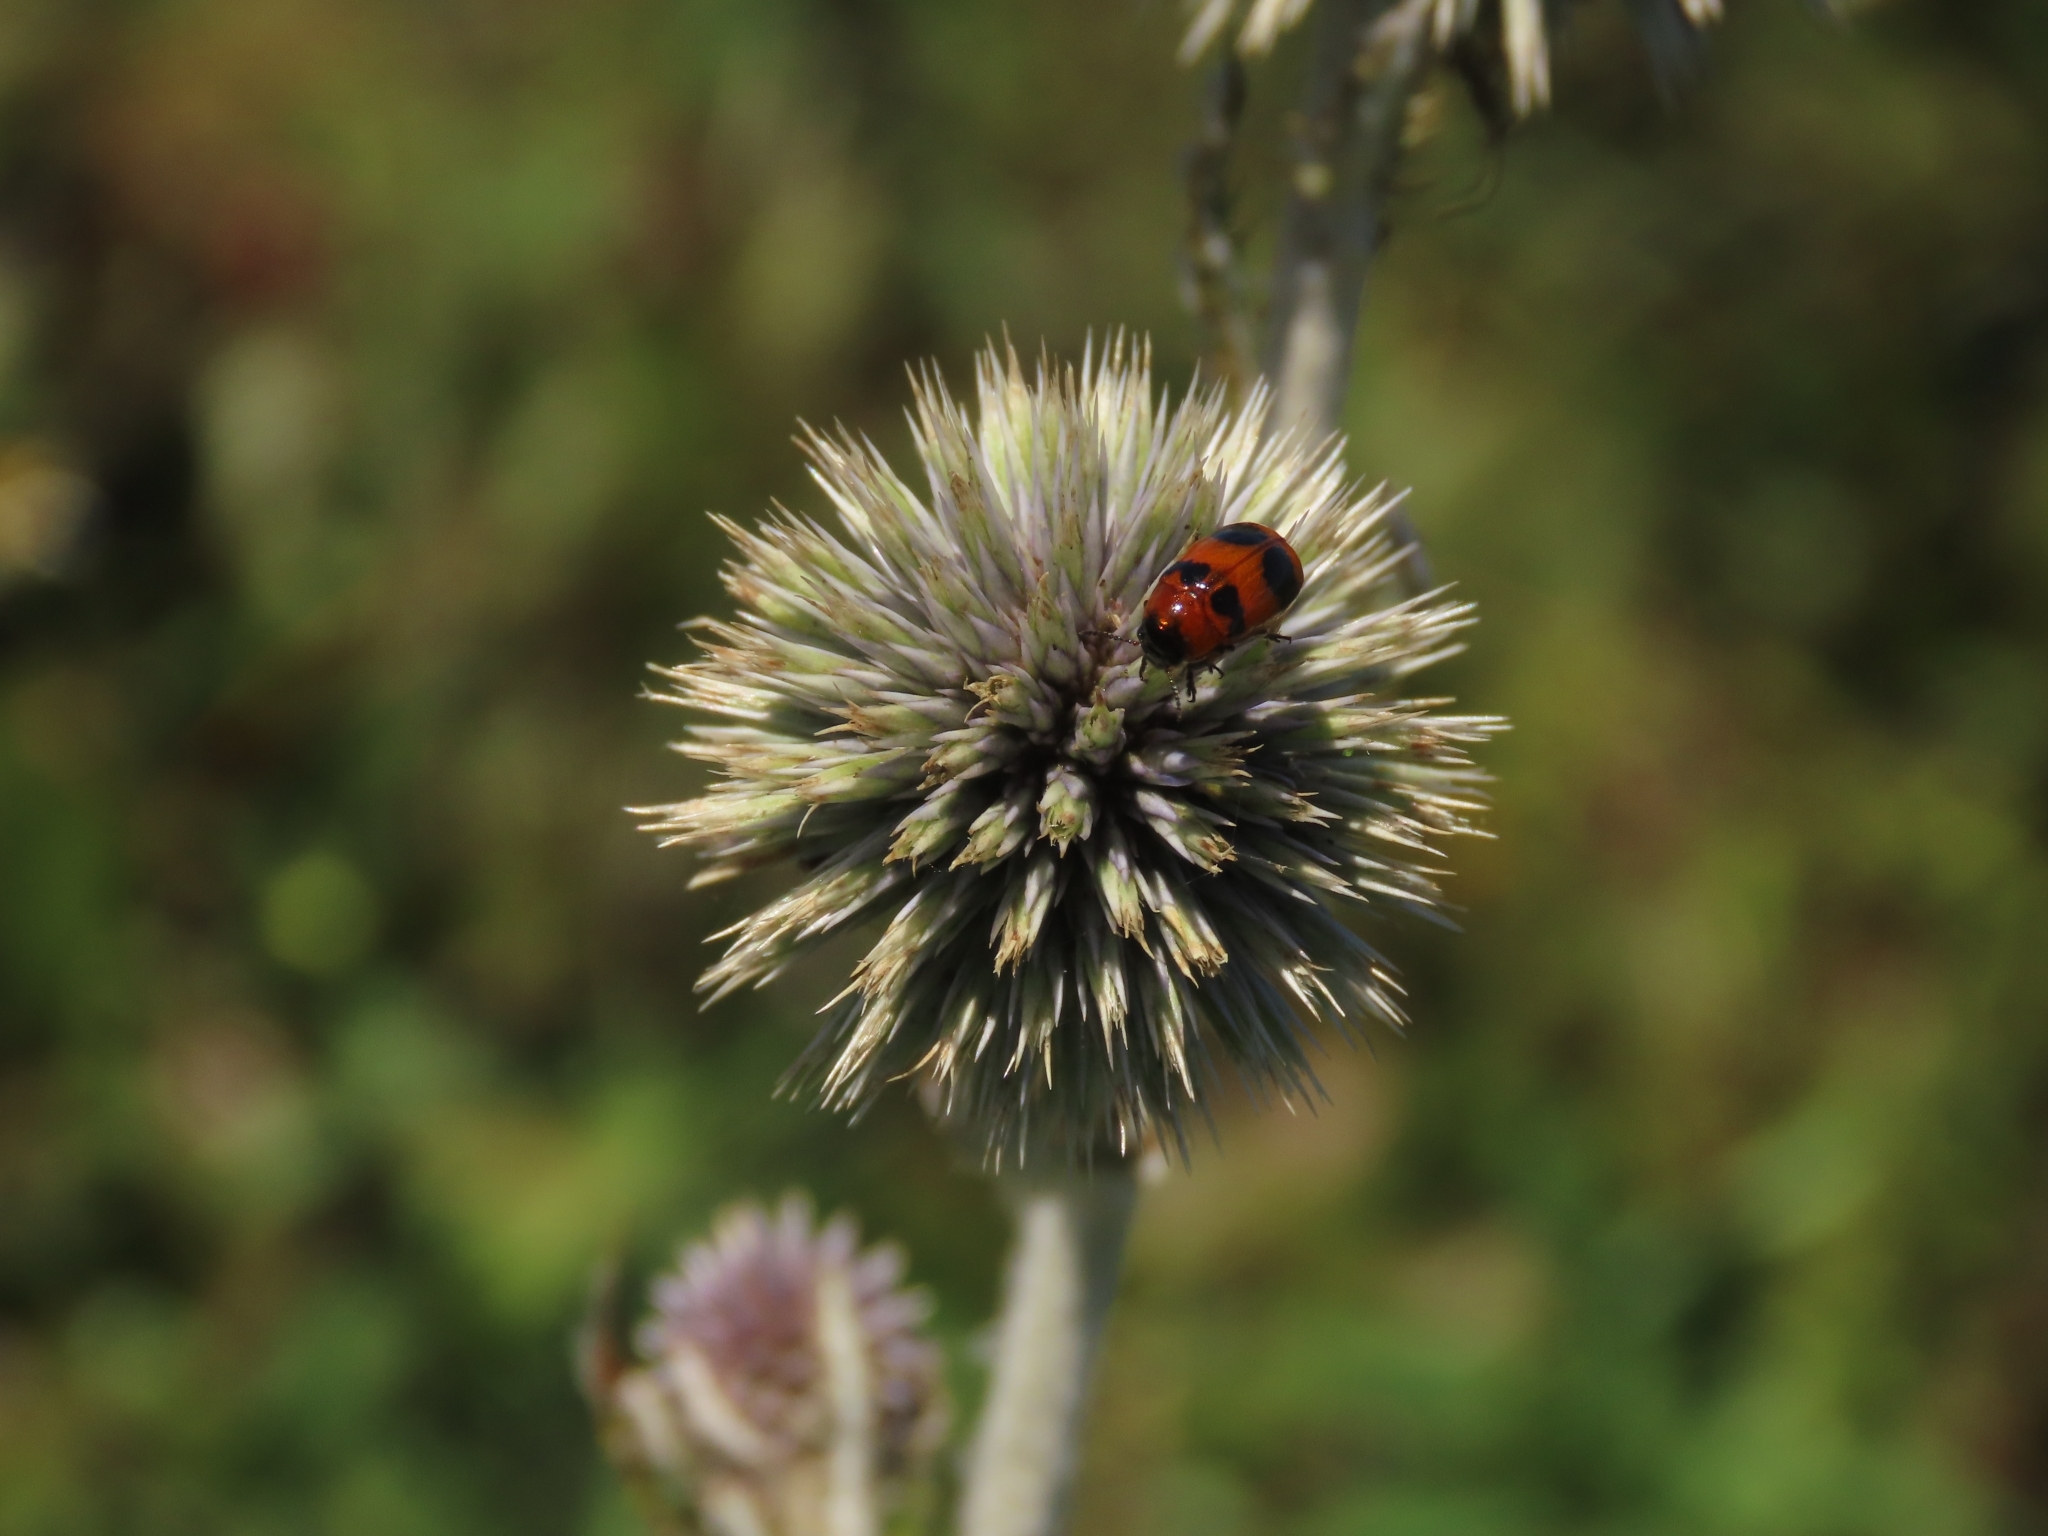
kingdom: Animalia
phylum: Arthropoda
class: Insecta
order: Coleoptera
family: Chrysomelidae
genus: Physosmaragdina
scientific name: Physosmaragdina nigrifrons
